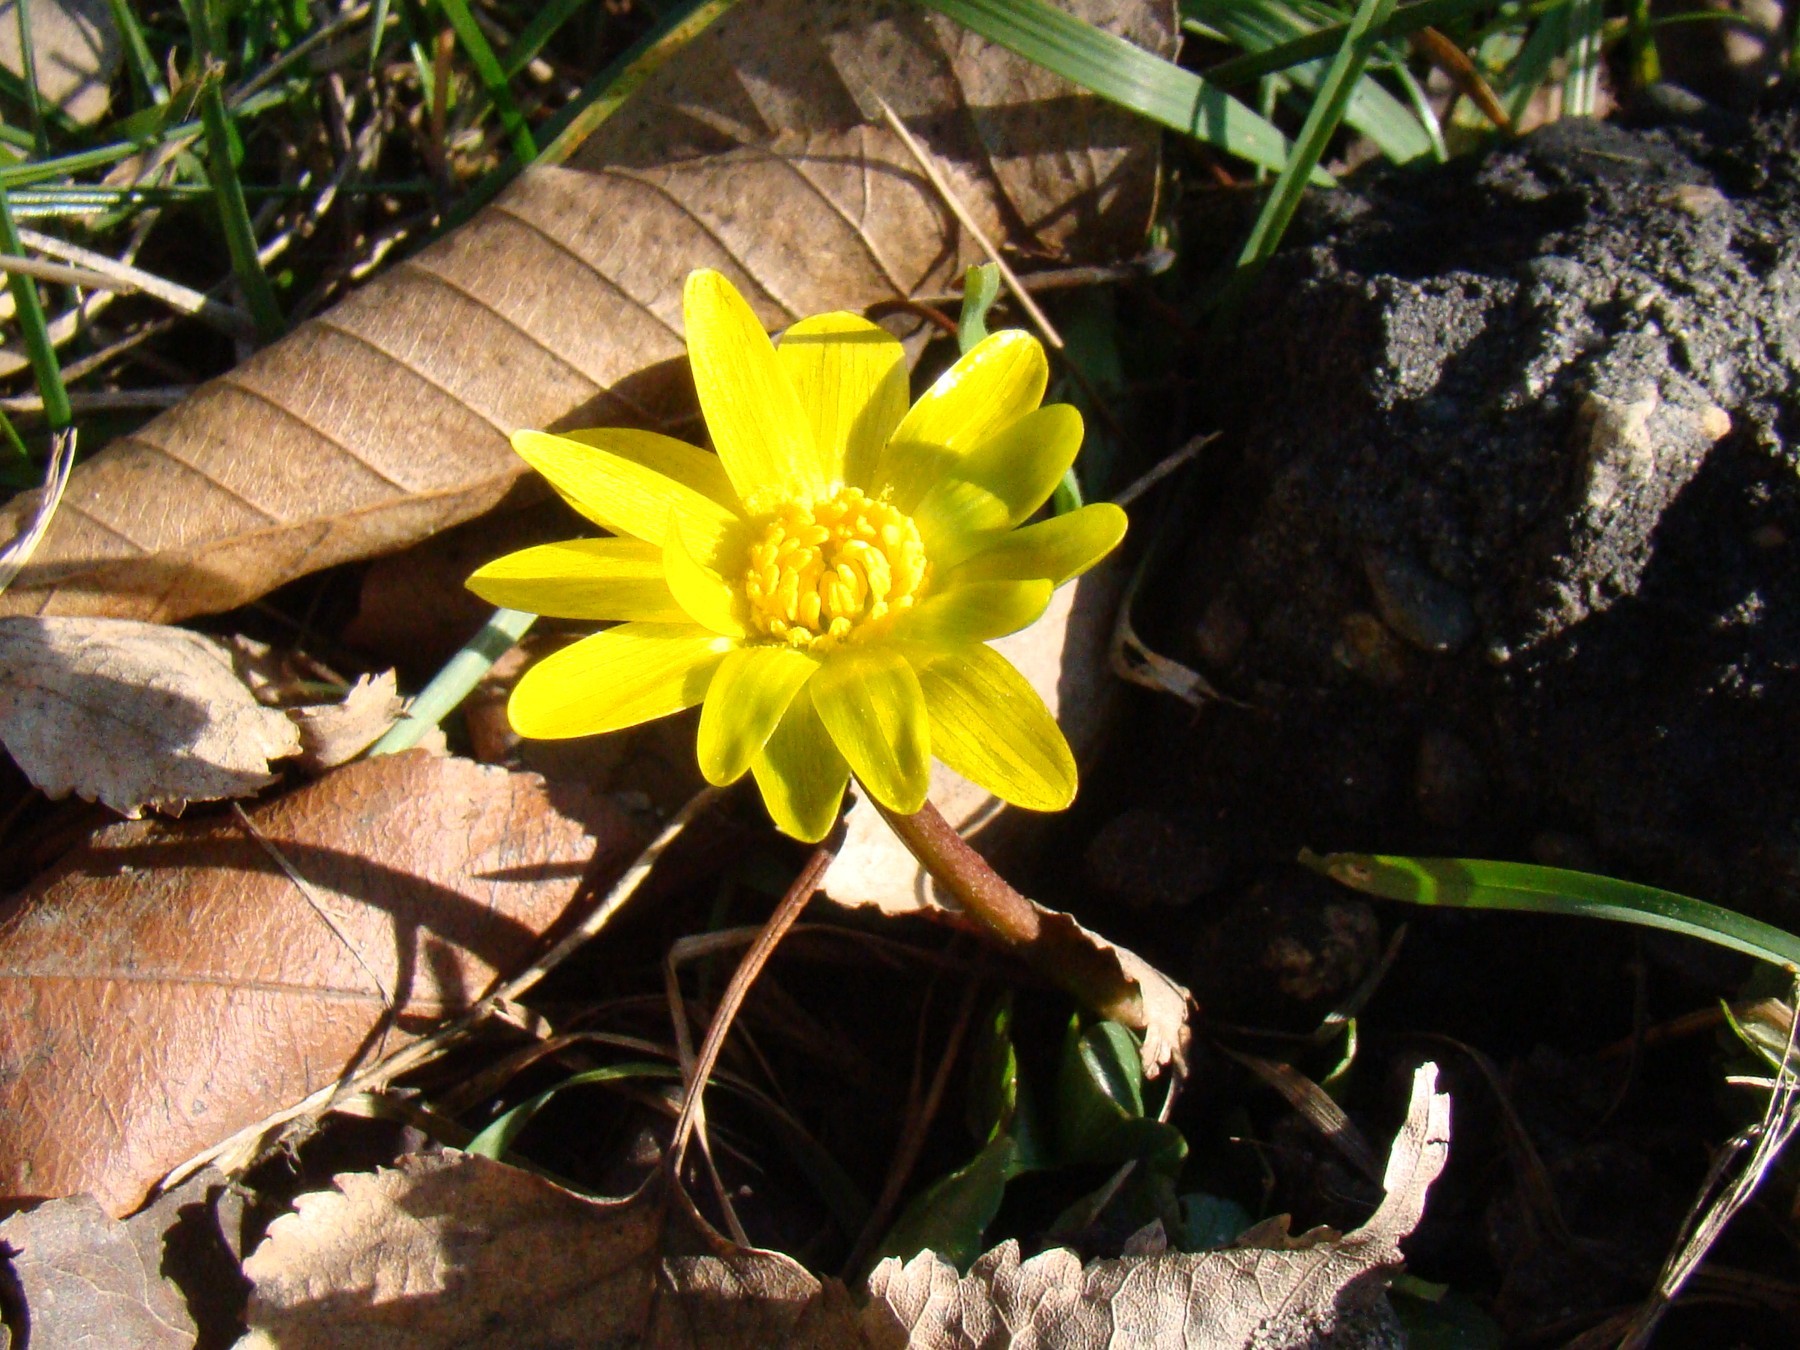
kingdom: Plantae
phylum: Tracheophyta
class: Magnoliopsida
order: Ranunculales
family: Ranunculaceae
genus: Ficaria
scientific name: Ficaria
